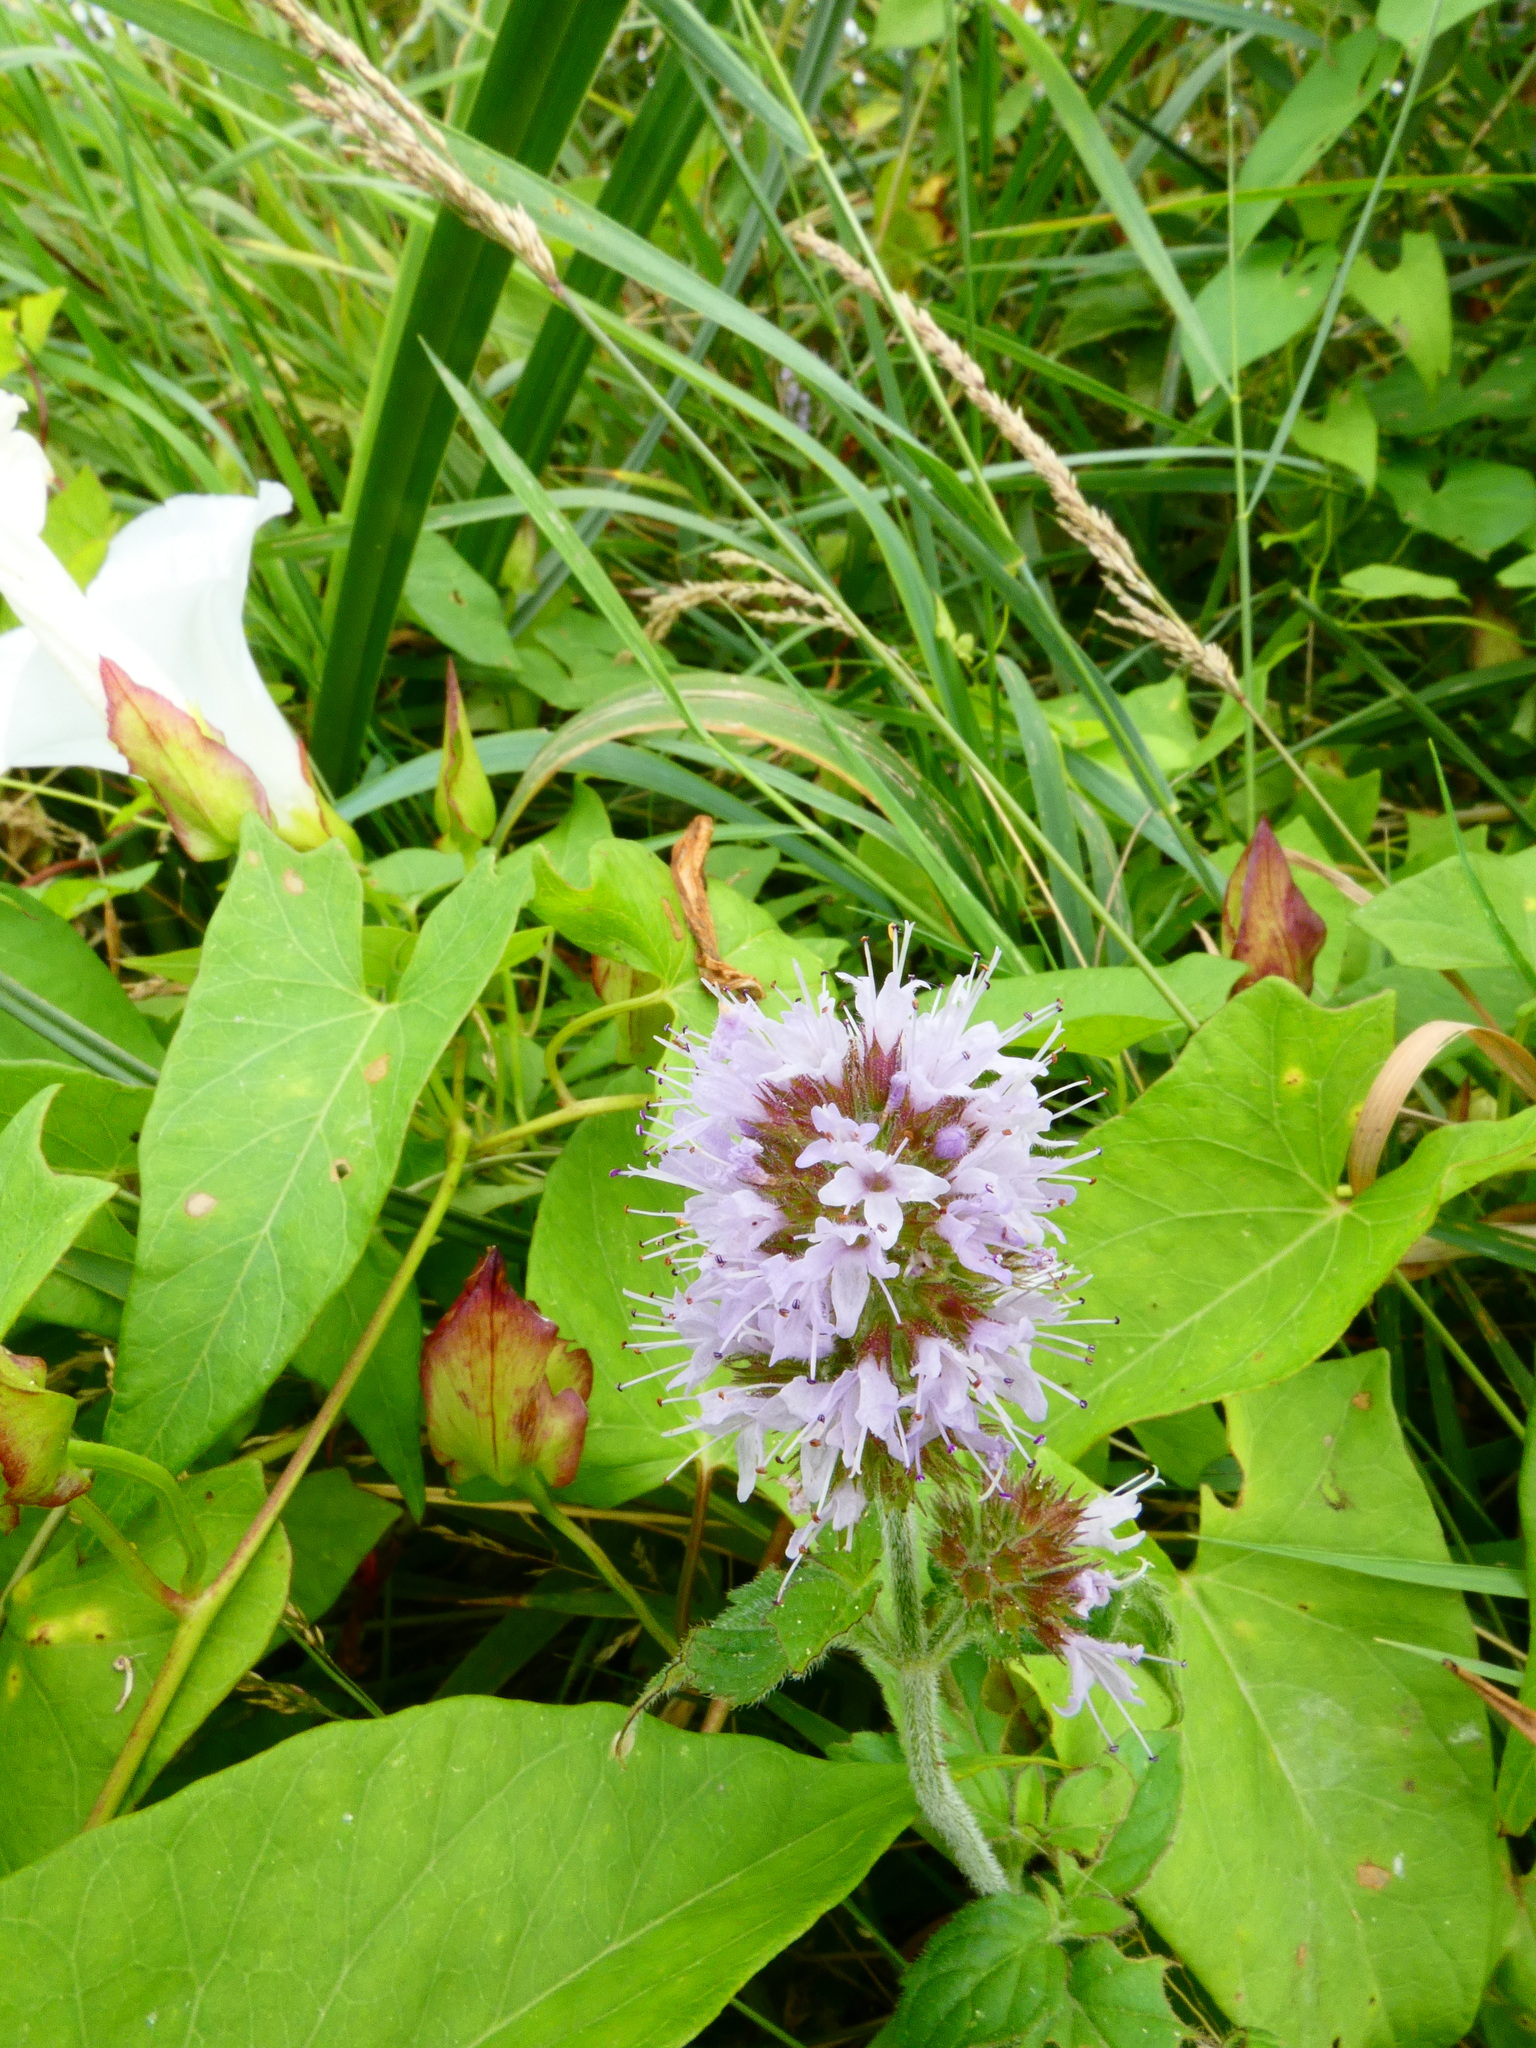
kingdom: Plantae
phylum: Tracheophyta
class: Magnoliopsida
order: Lamiales
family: Lamiaceae
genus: Mentha
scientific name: Mentha aquatica
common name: Water mint
